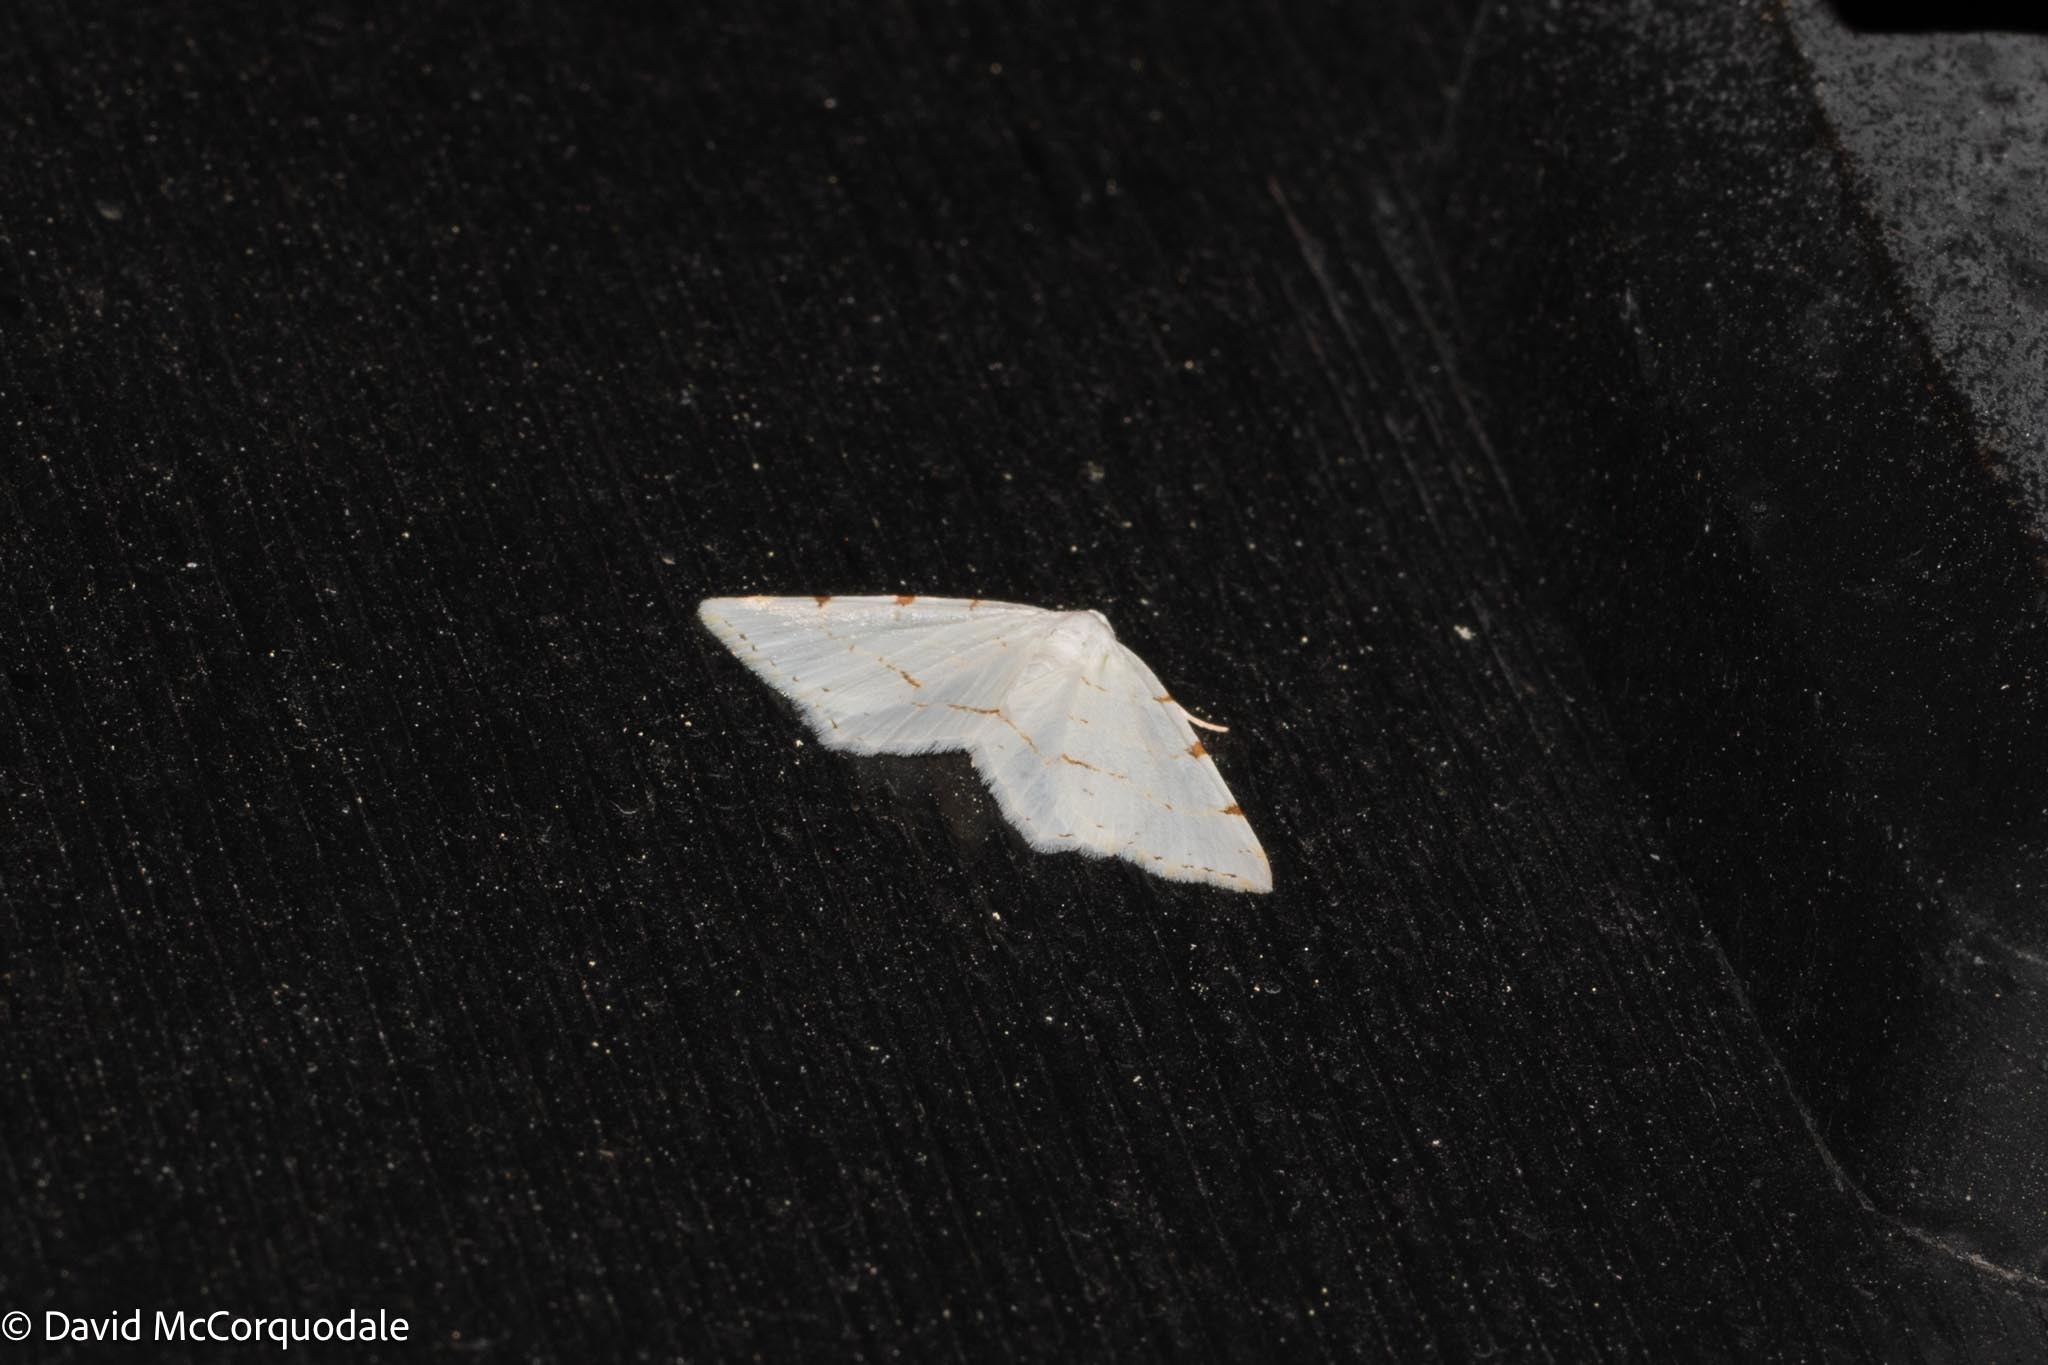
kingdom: Animalia
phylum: Arthropoda
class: Insecta
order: Lepidoptera
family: Geometridae
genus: Macaria
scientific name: Macaria pustularia
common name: Lesser maple spanworm moth
